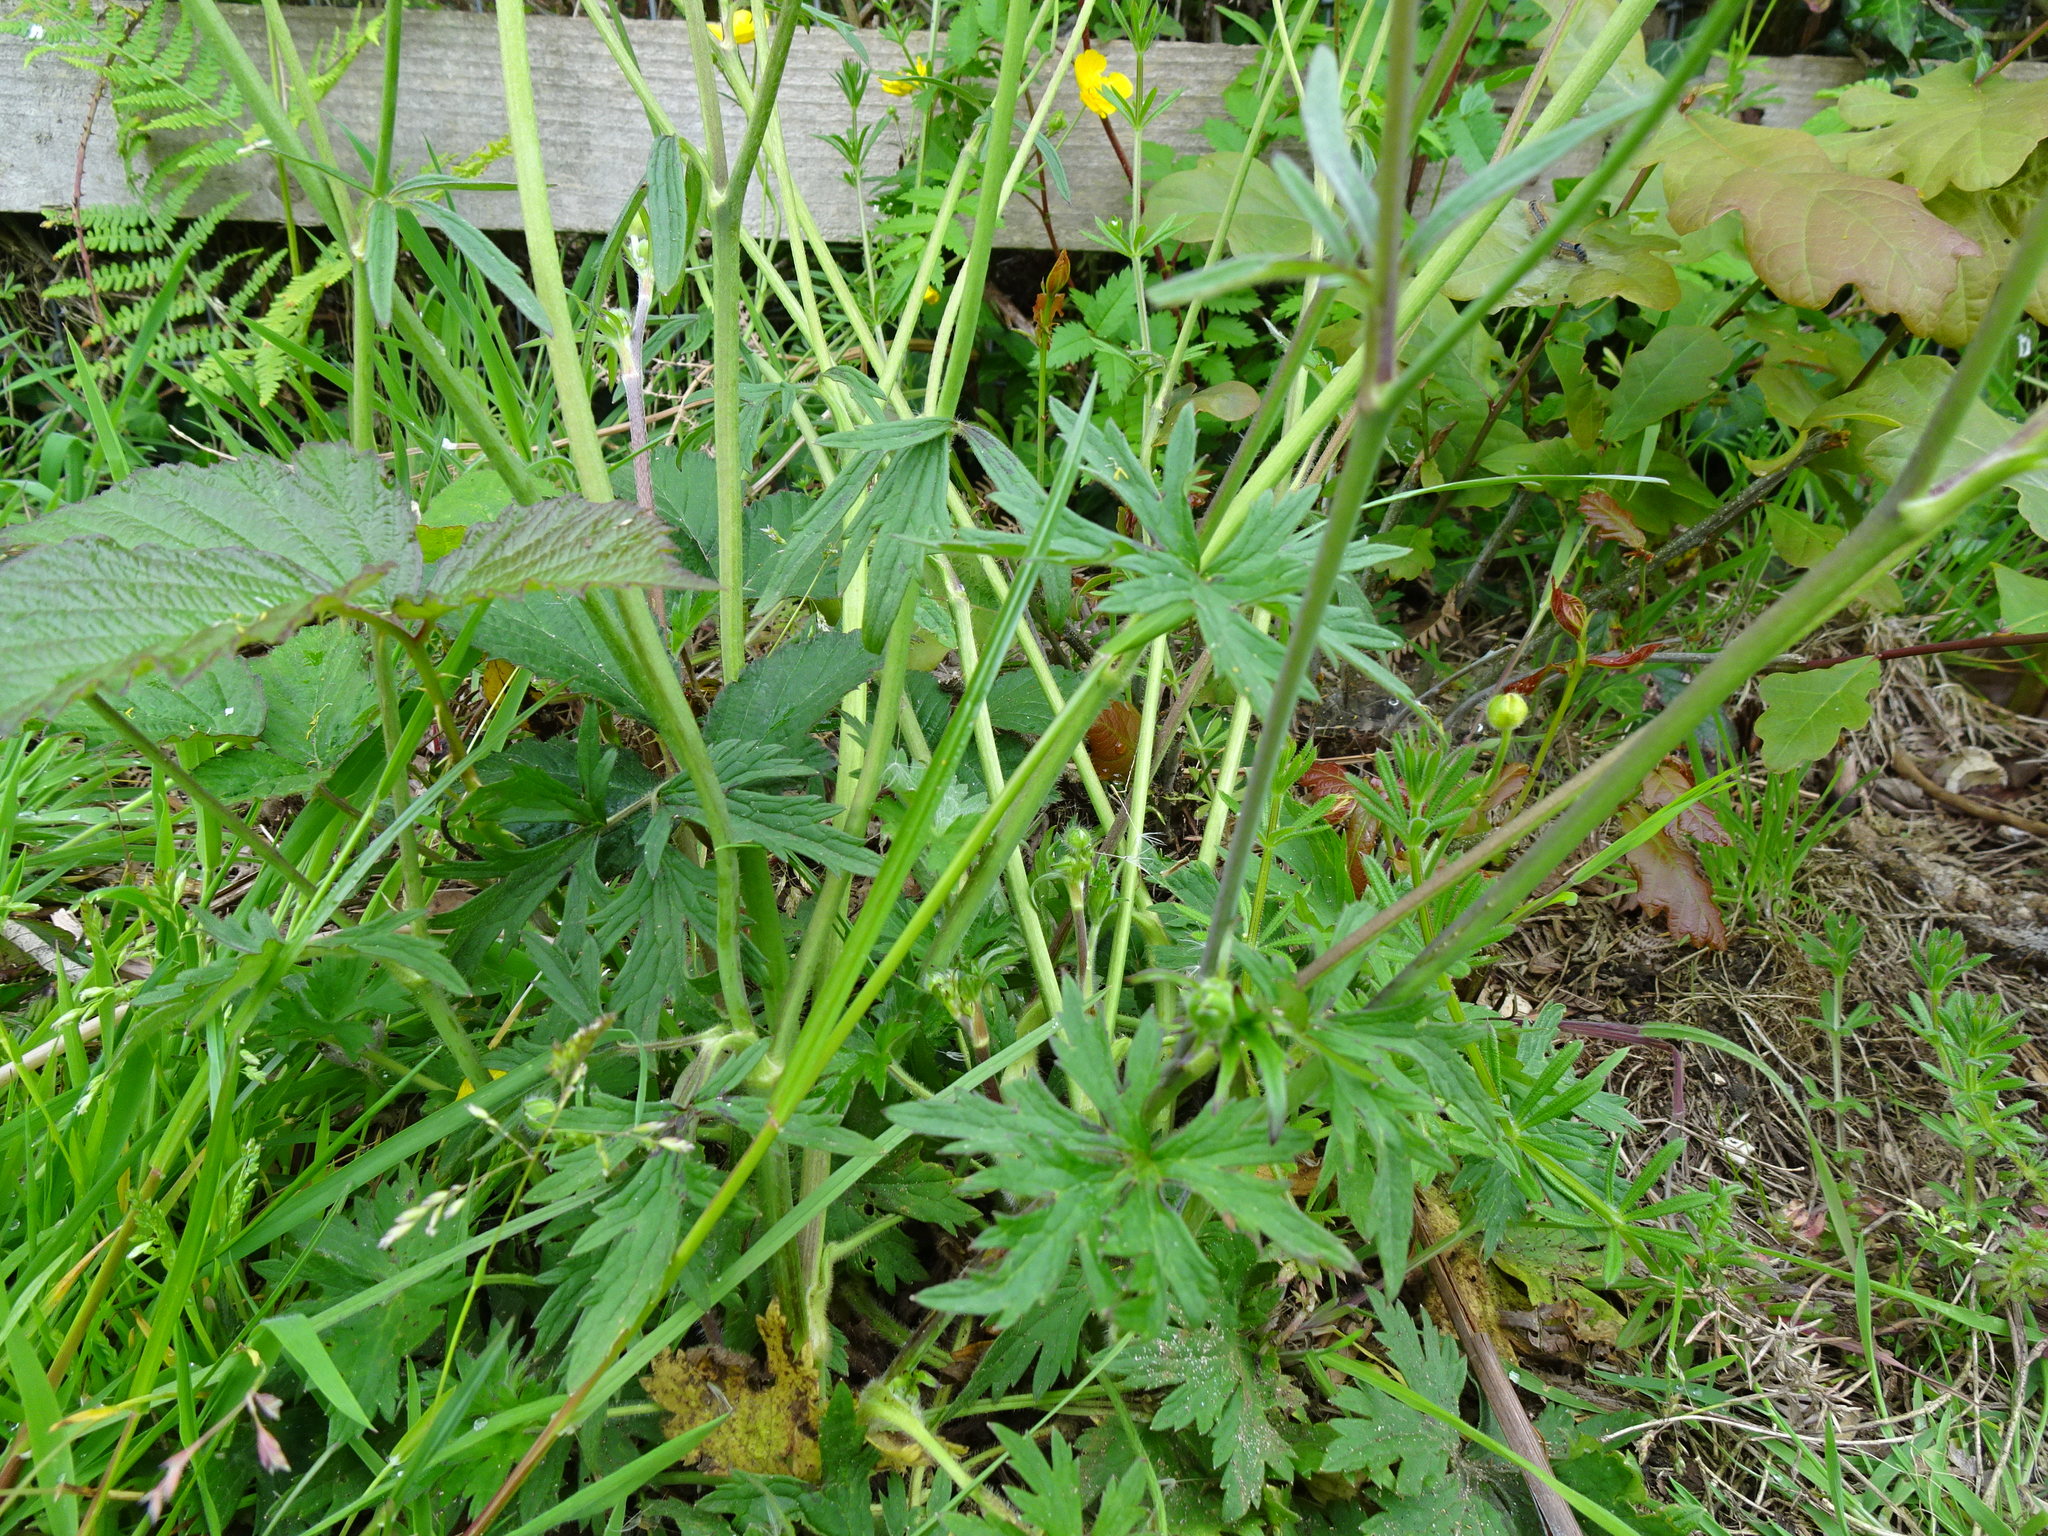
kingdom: Plantae
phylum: Tracheophyta
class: Magnoliopsida
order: Ranunculales
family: Ranunculaceae
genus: Ranunculus
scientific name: Ranunculus acris
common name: Meadow buttercup
